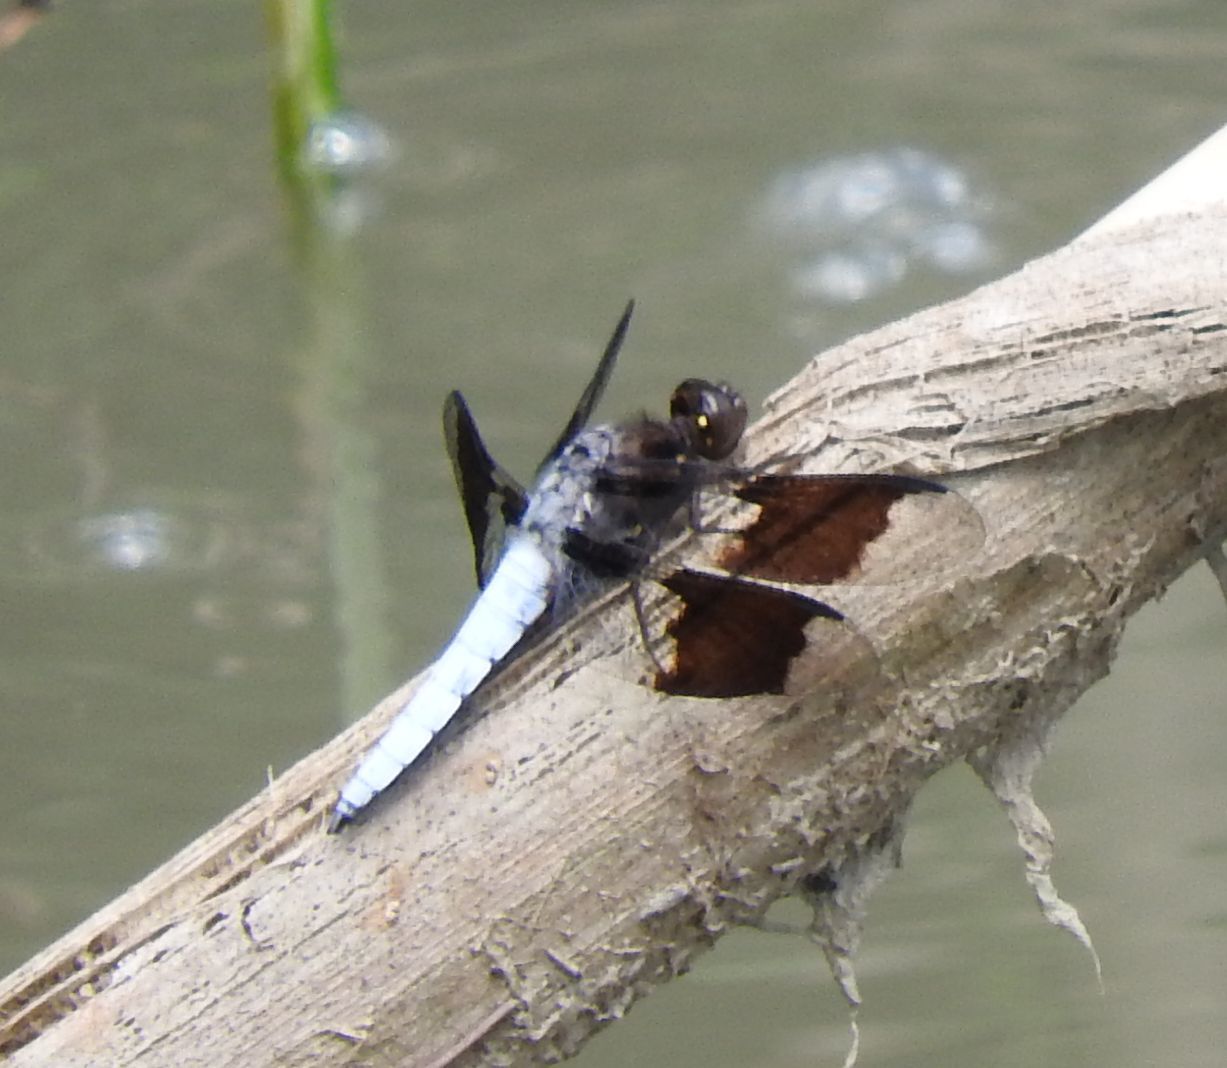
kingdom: Animalia
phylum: Arthropoda
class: Insecta
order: Odonata
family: Libellulidae
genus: Plathemis
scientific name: Plathemis lydia
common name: Common whitetail
